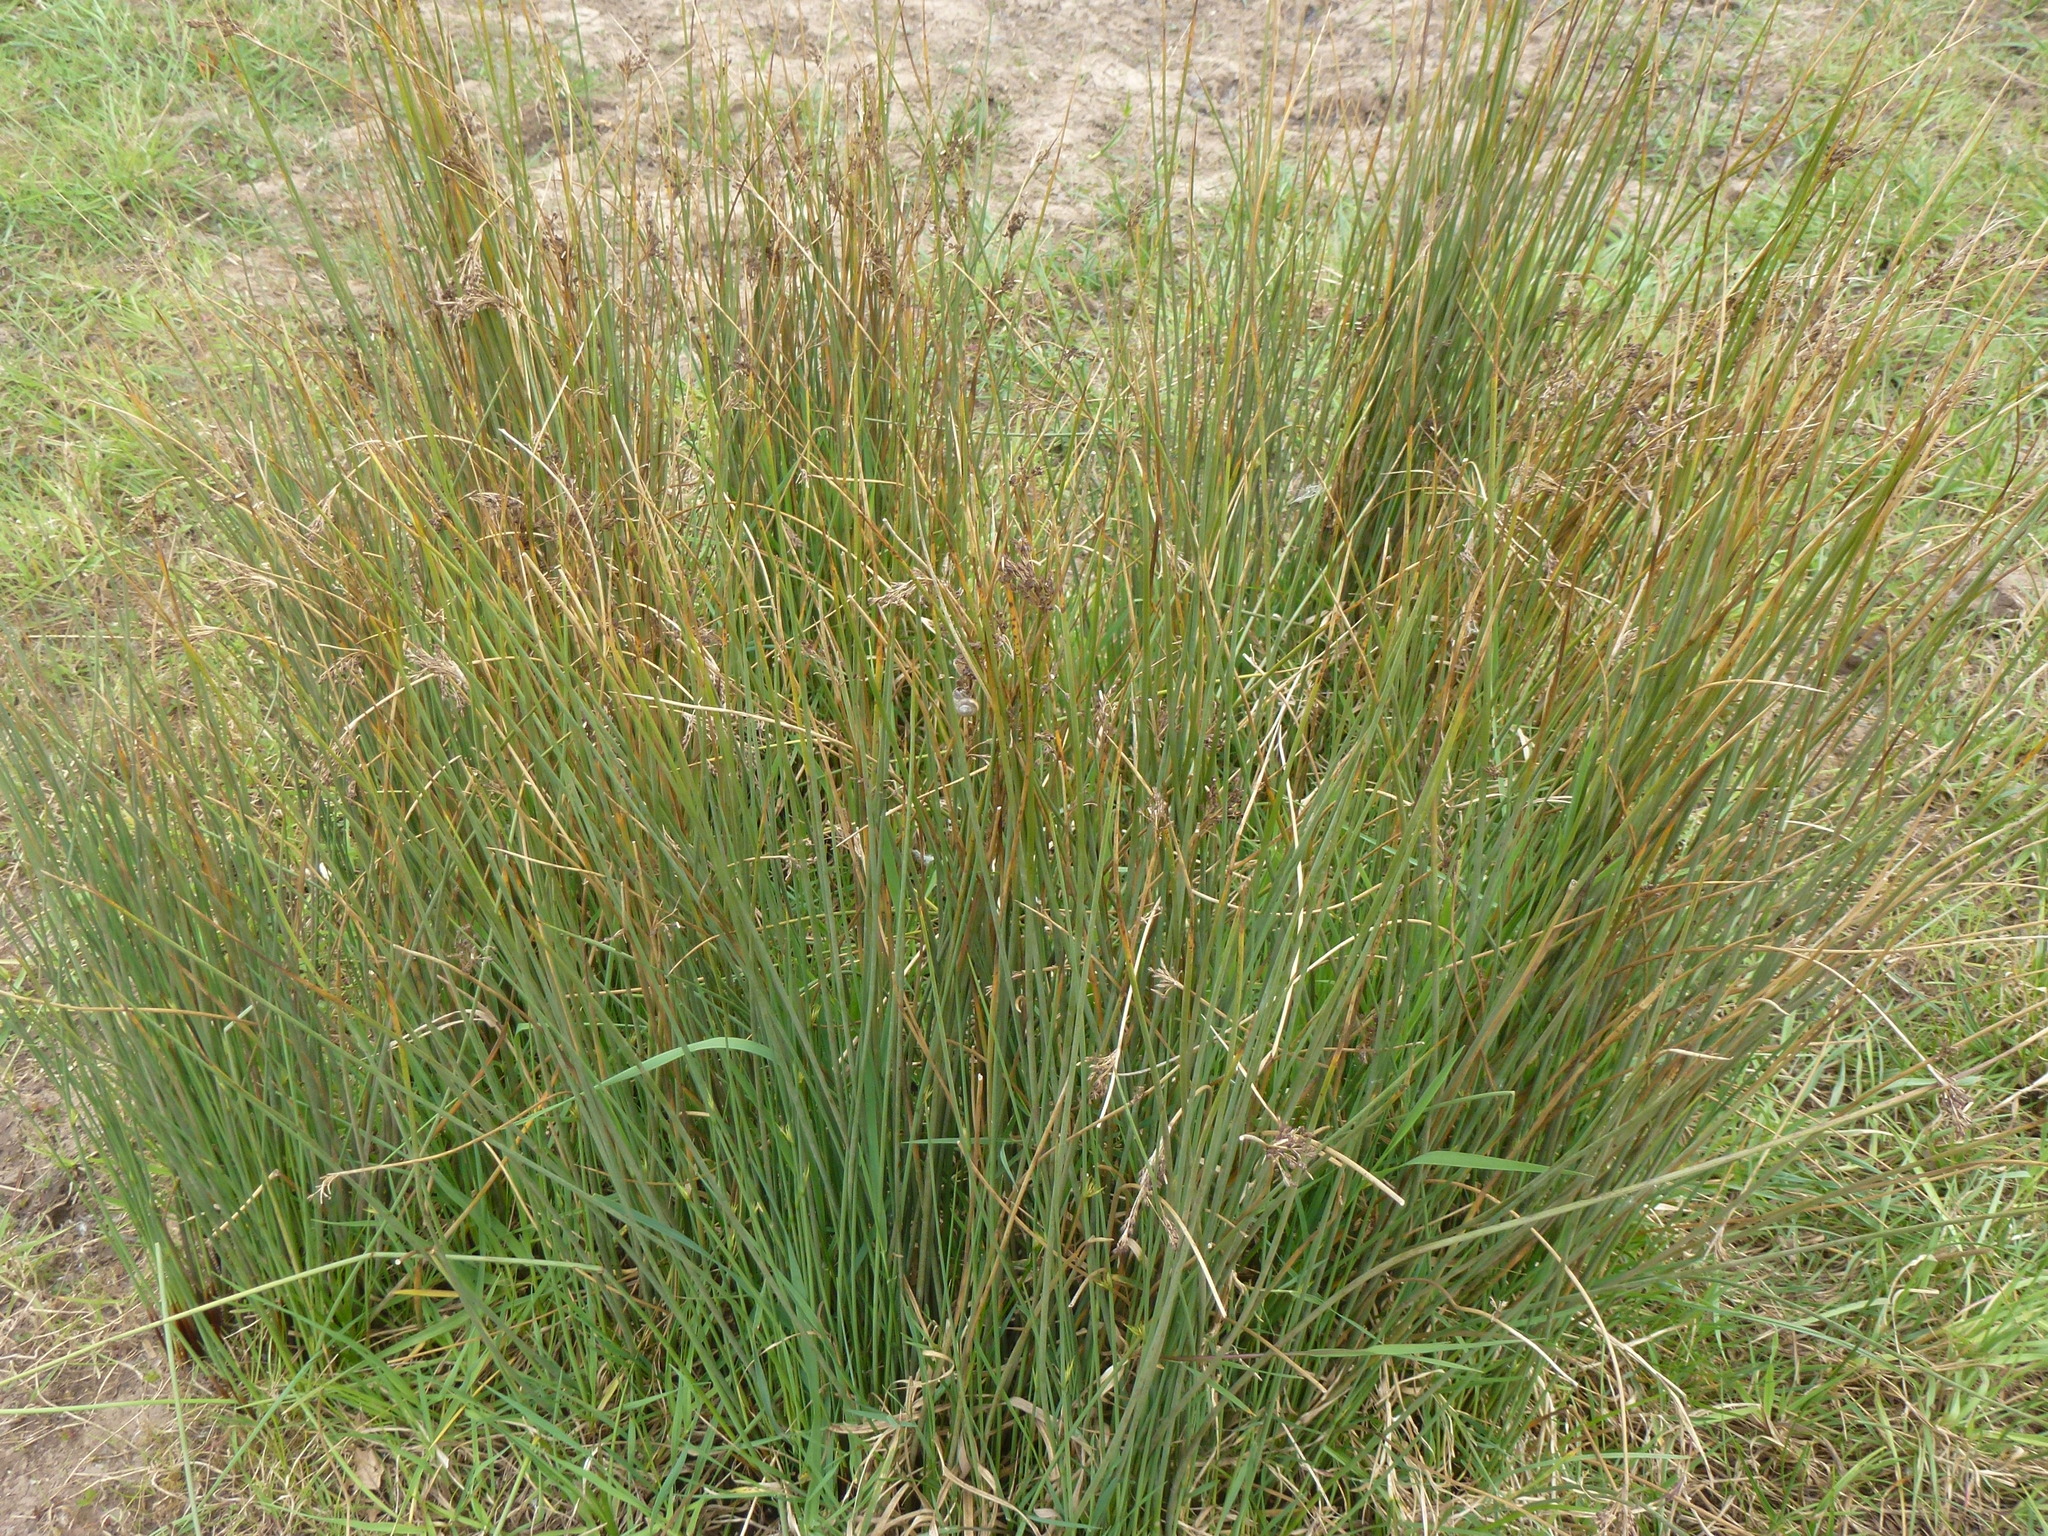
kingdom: Plantae
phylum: Tracheophyta
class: Liliopsida
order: Poales
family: Juncaceae
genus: Juncus
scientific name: Juncus inflexus
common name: Hard rush
